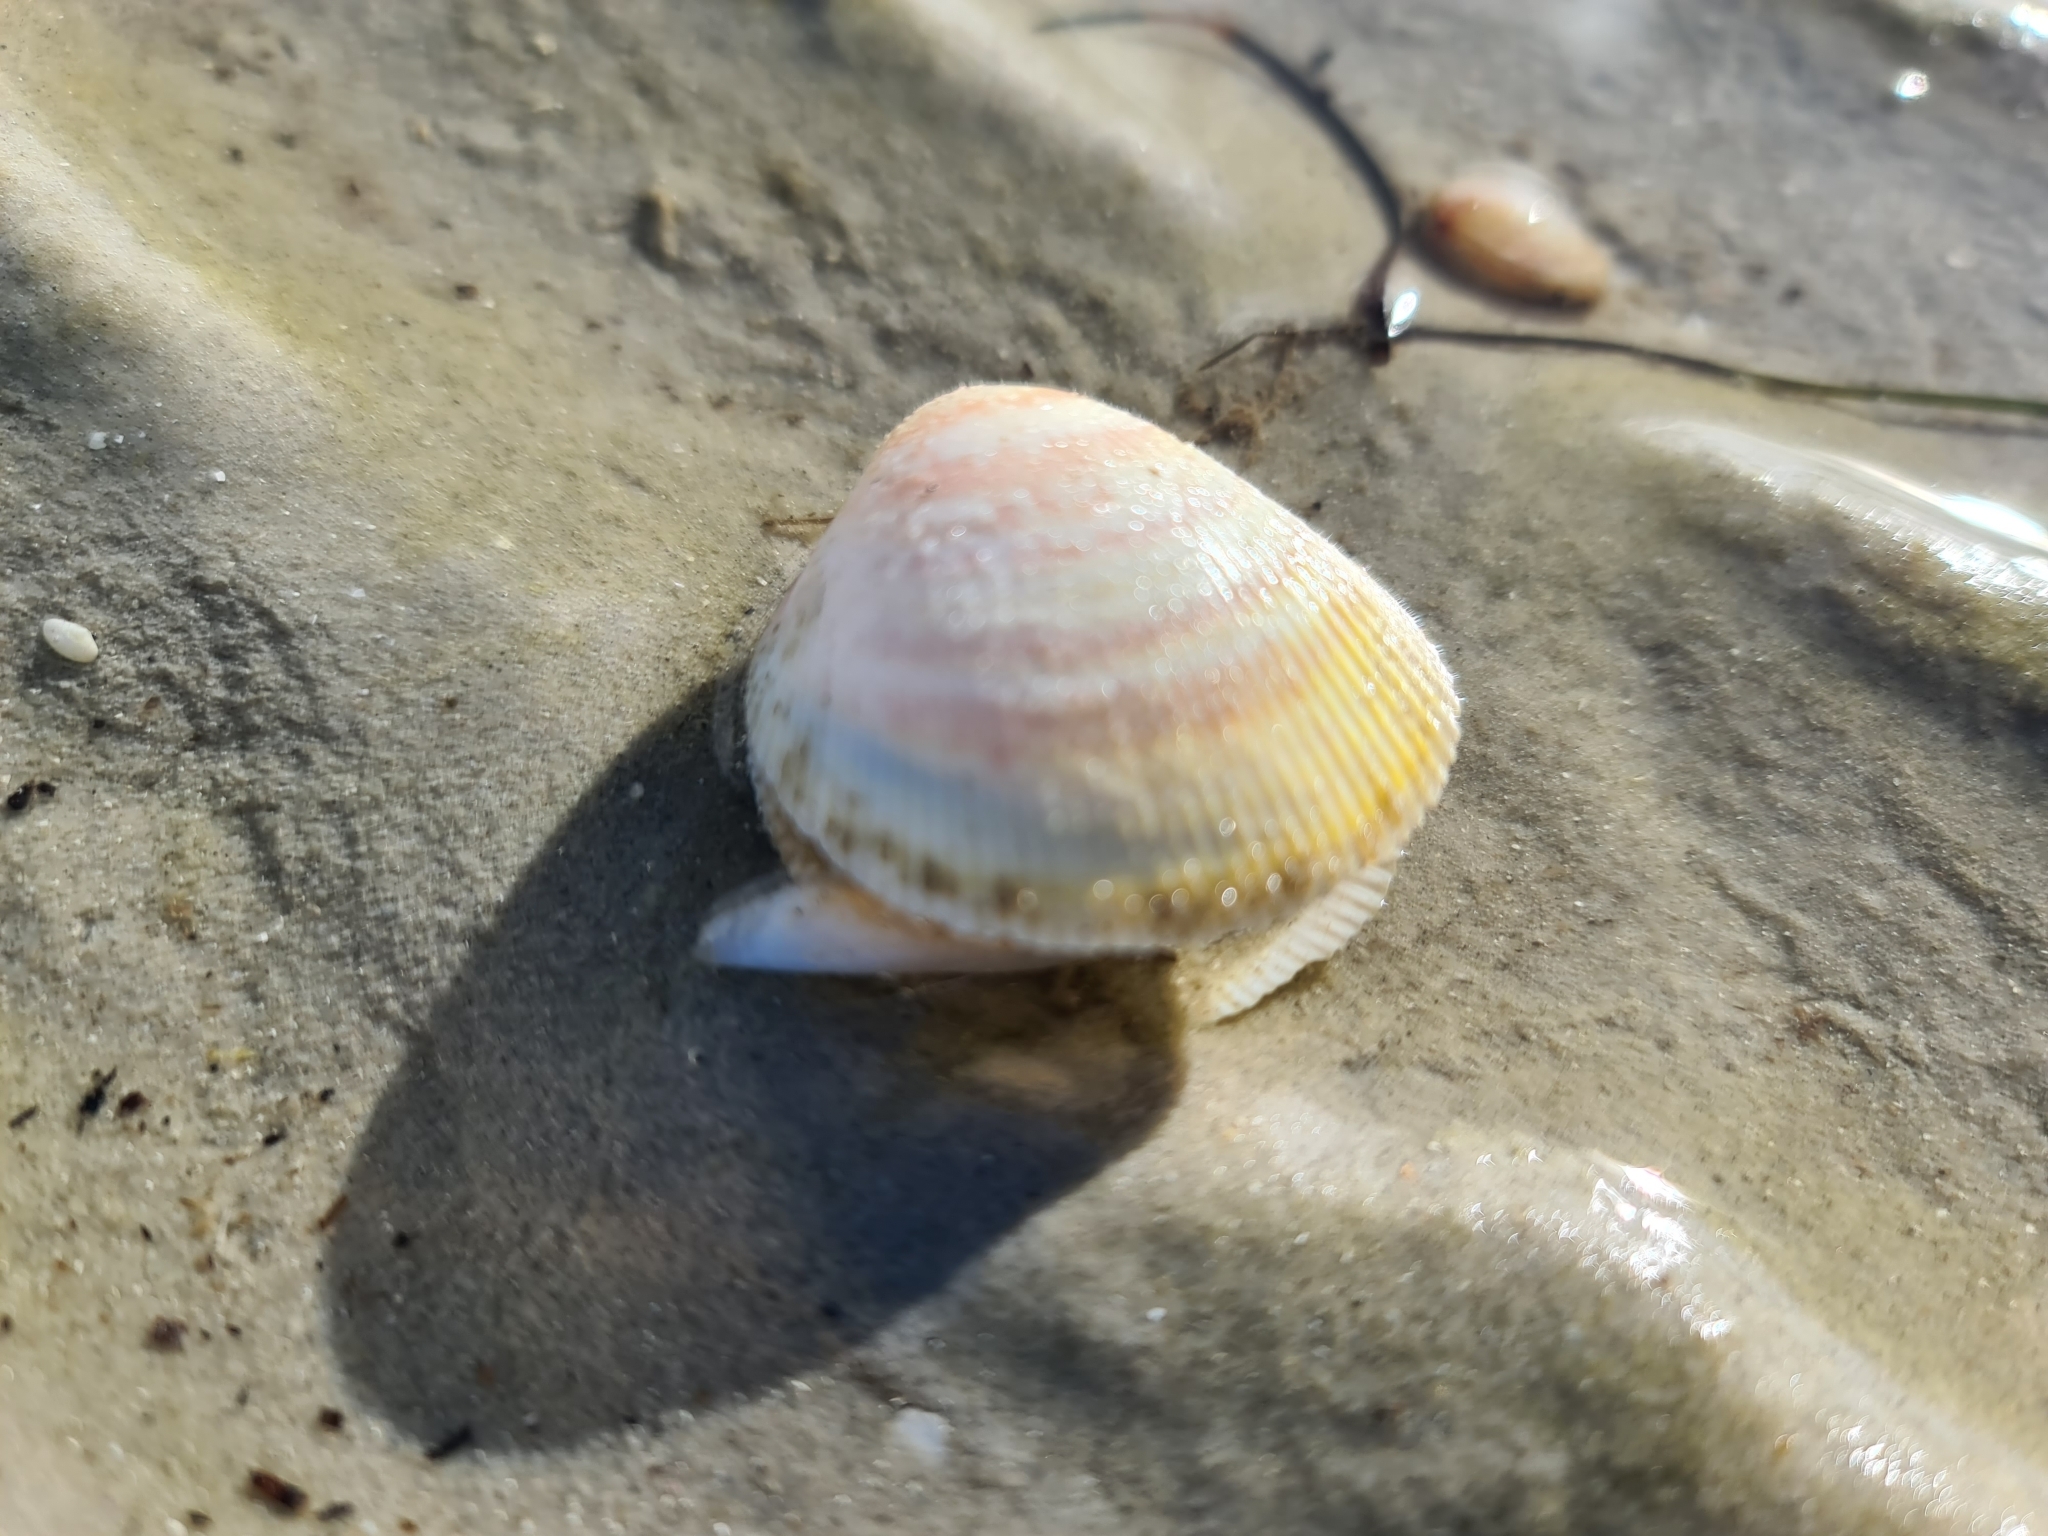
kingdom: Animalia
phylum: Mollusca
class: Bivalvia
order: Cardiida
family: Cardiidae
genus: Fulvia
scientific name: Fulvia tenuicostata
